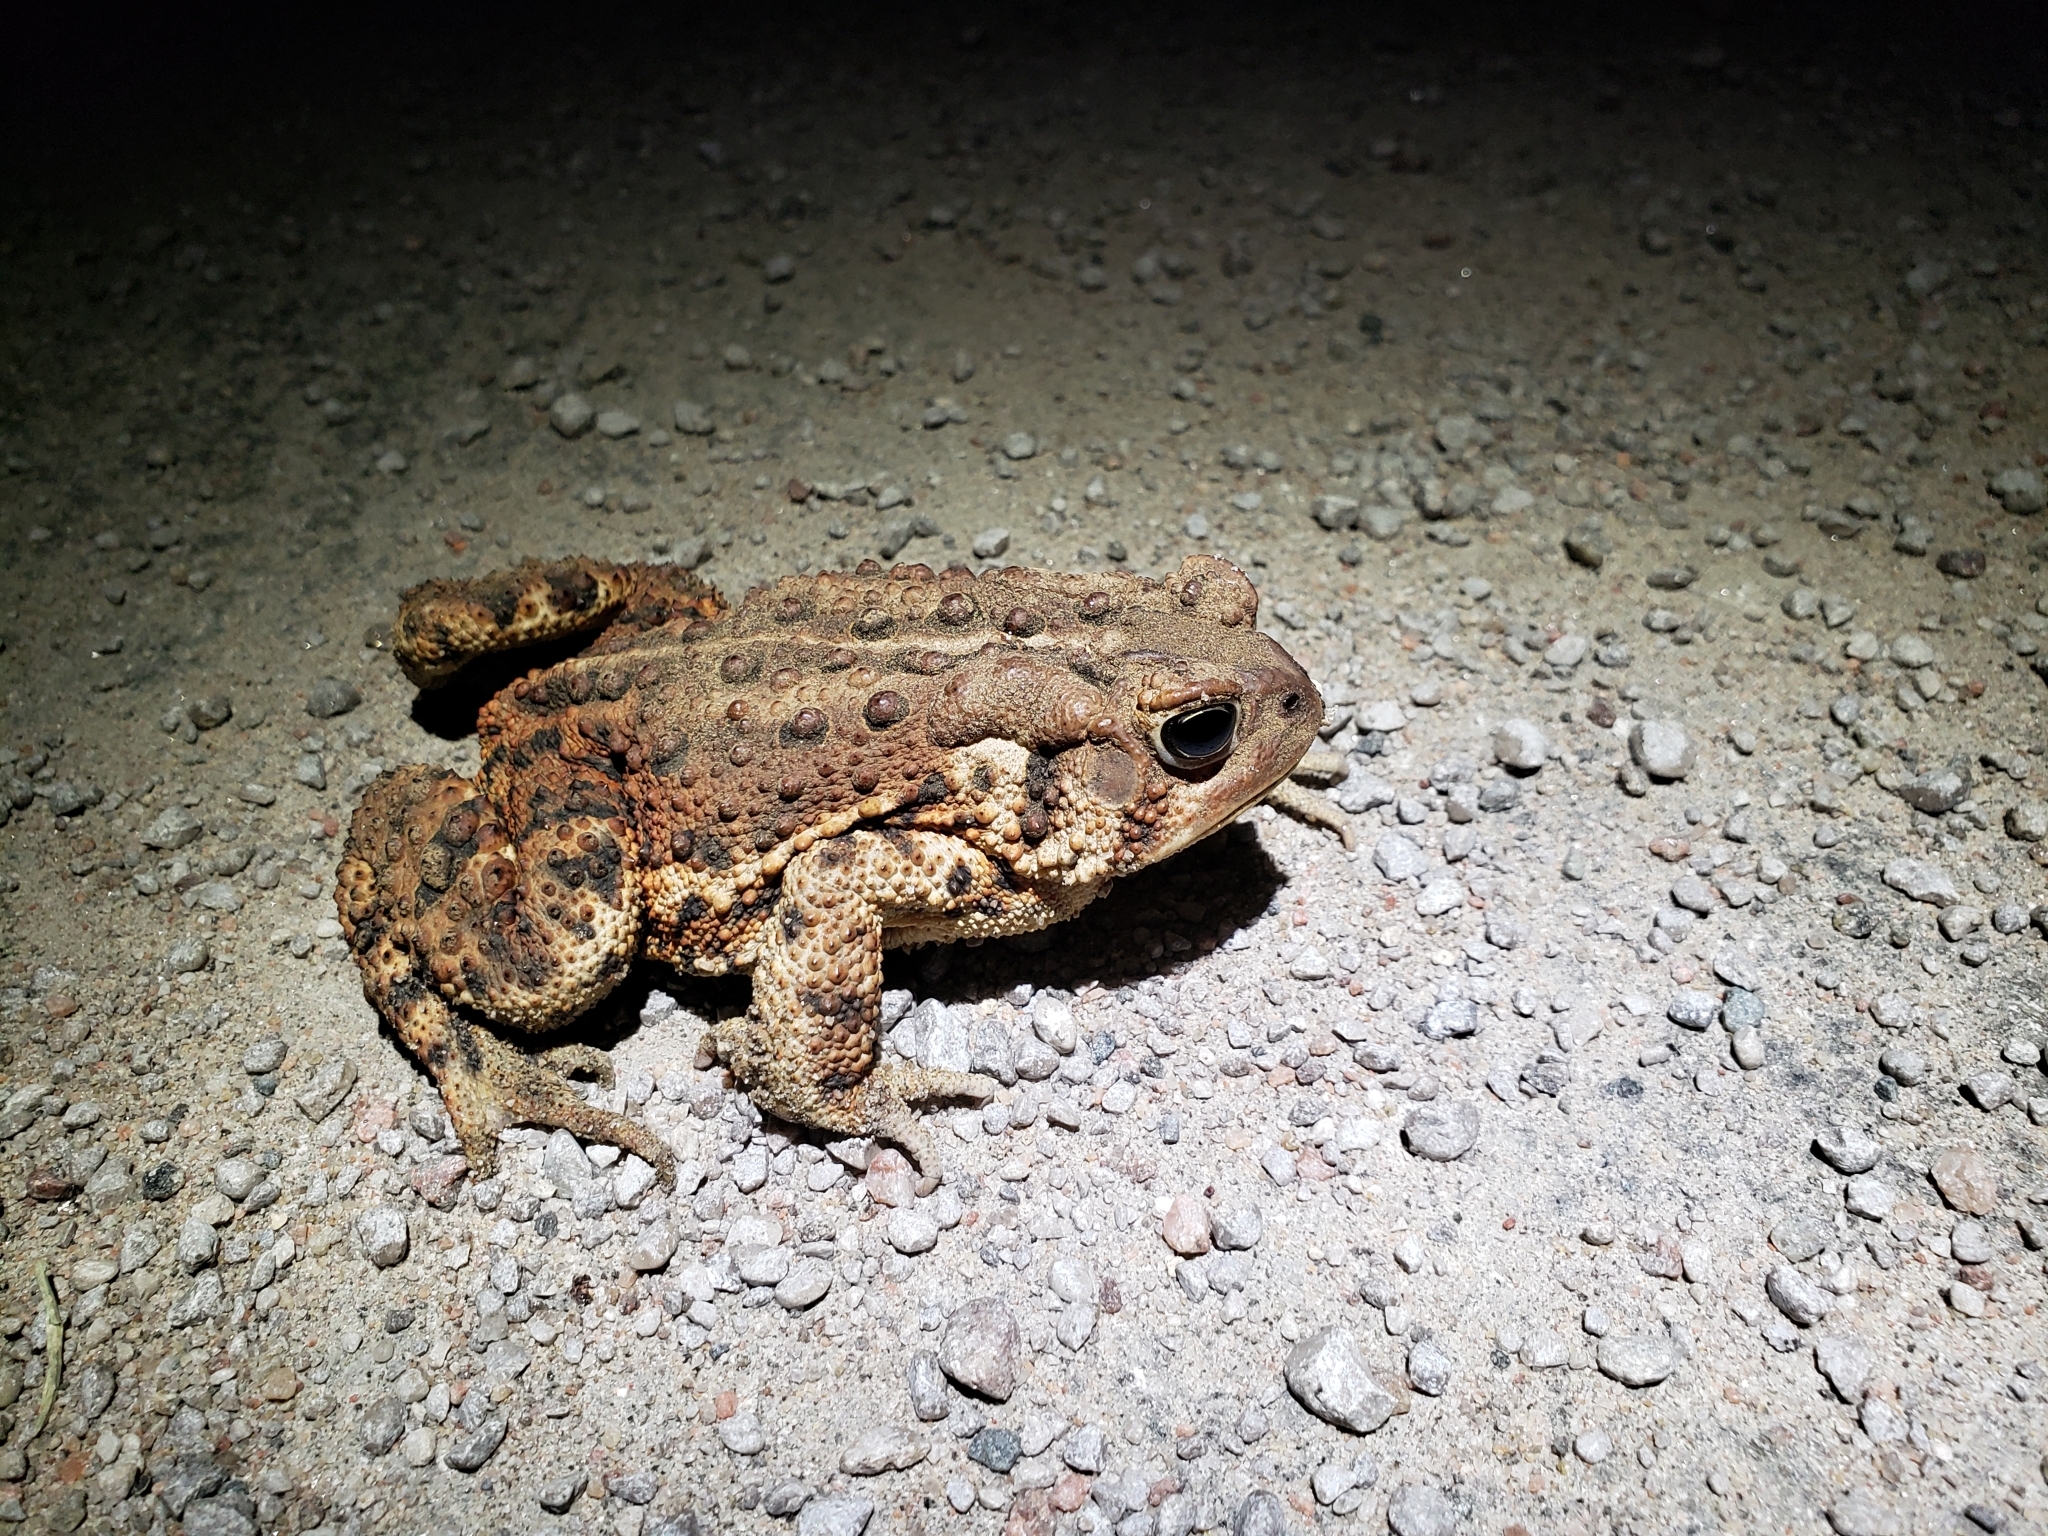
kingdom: Animalia
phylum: Chordata
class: Amphibia
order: Anura
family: Bufonidae
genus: Anaxyrus
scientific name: Anaxyrus americanus
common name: American toad
